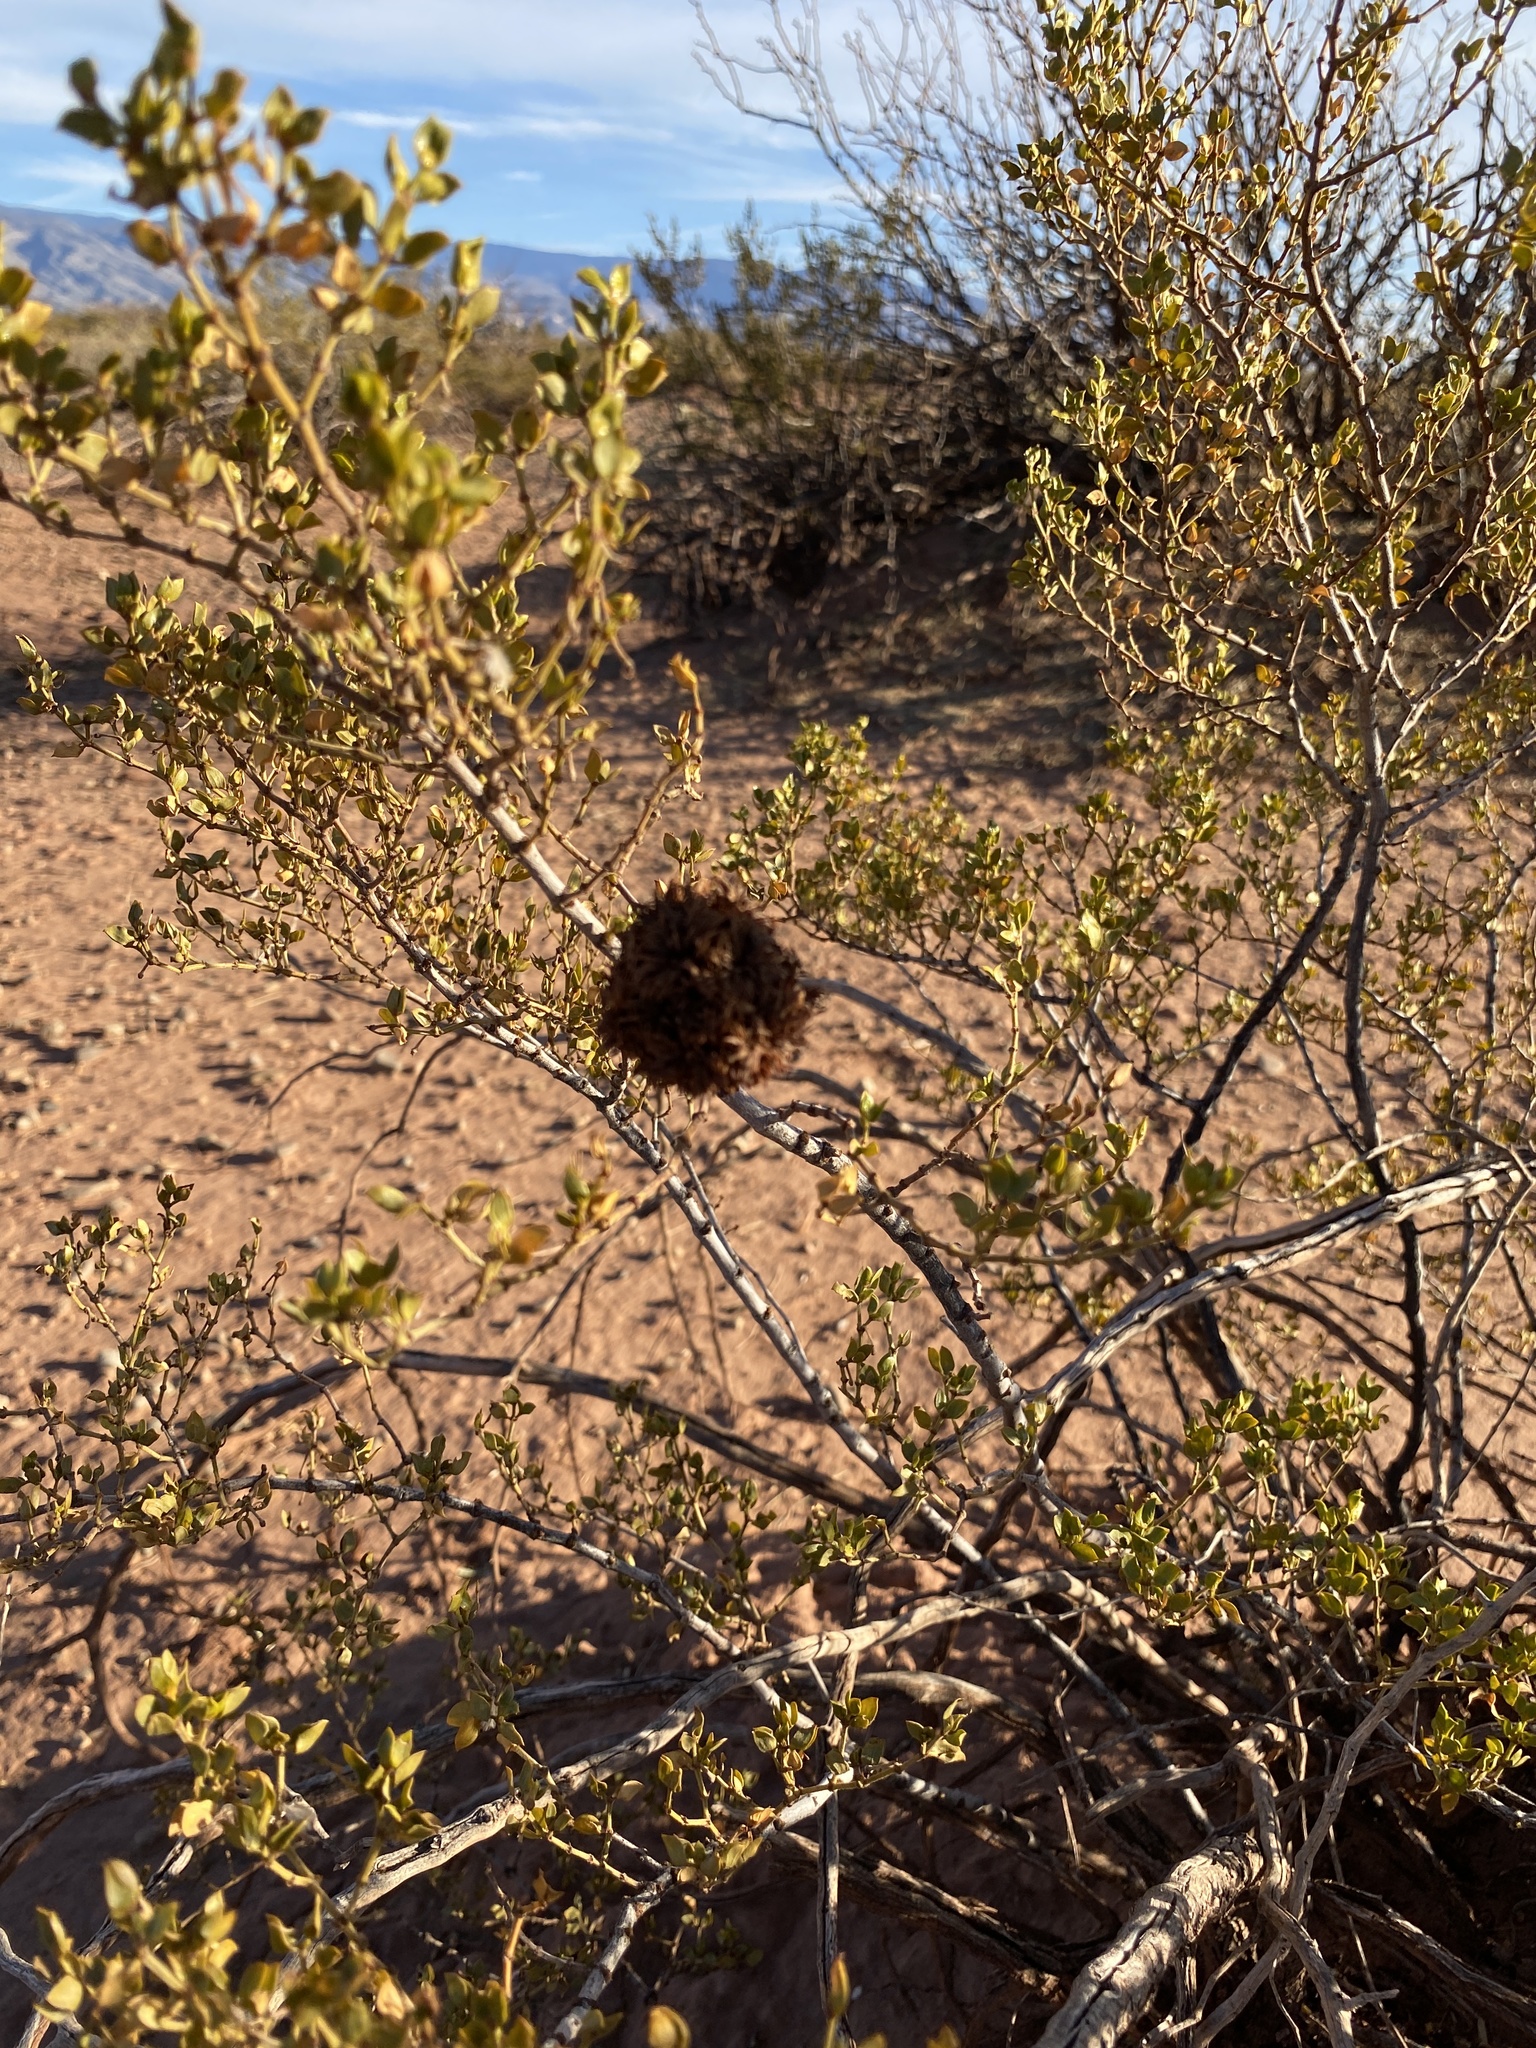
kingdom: Animalia
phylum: Arthropoda
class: Insecta
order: Diptera
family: Cecidomyiidae
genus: Asphondylia
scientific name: Asphondylia auripila
